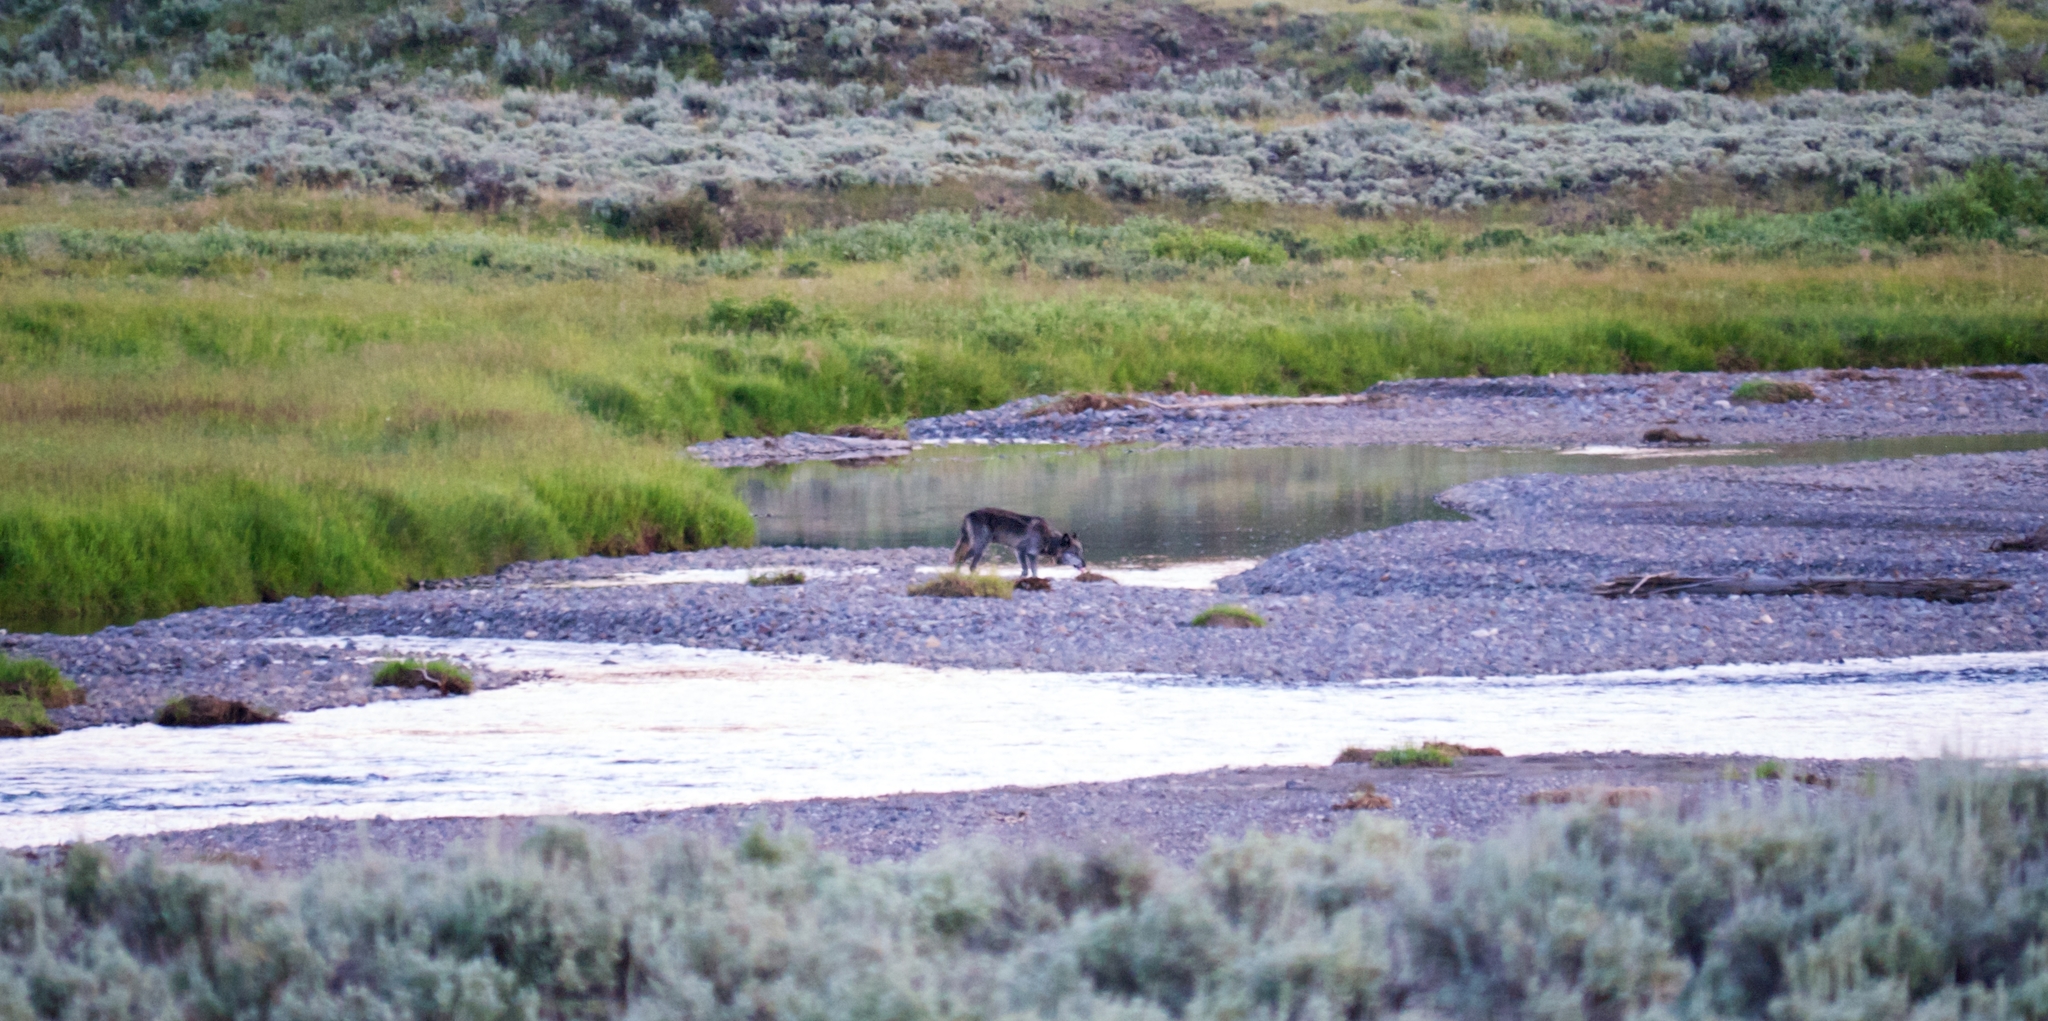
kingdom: Animalia
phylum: Chordata
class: Mammalia
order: Carnivora
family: Canidae
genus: Canis
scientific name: Canis lupus
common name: Gray wolf
